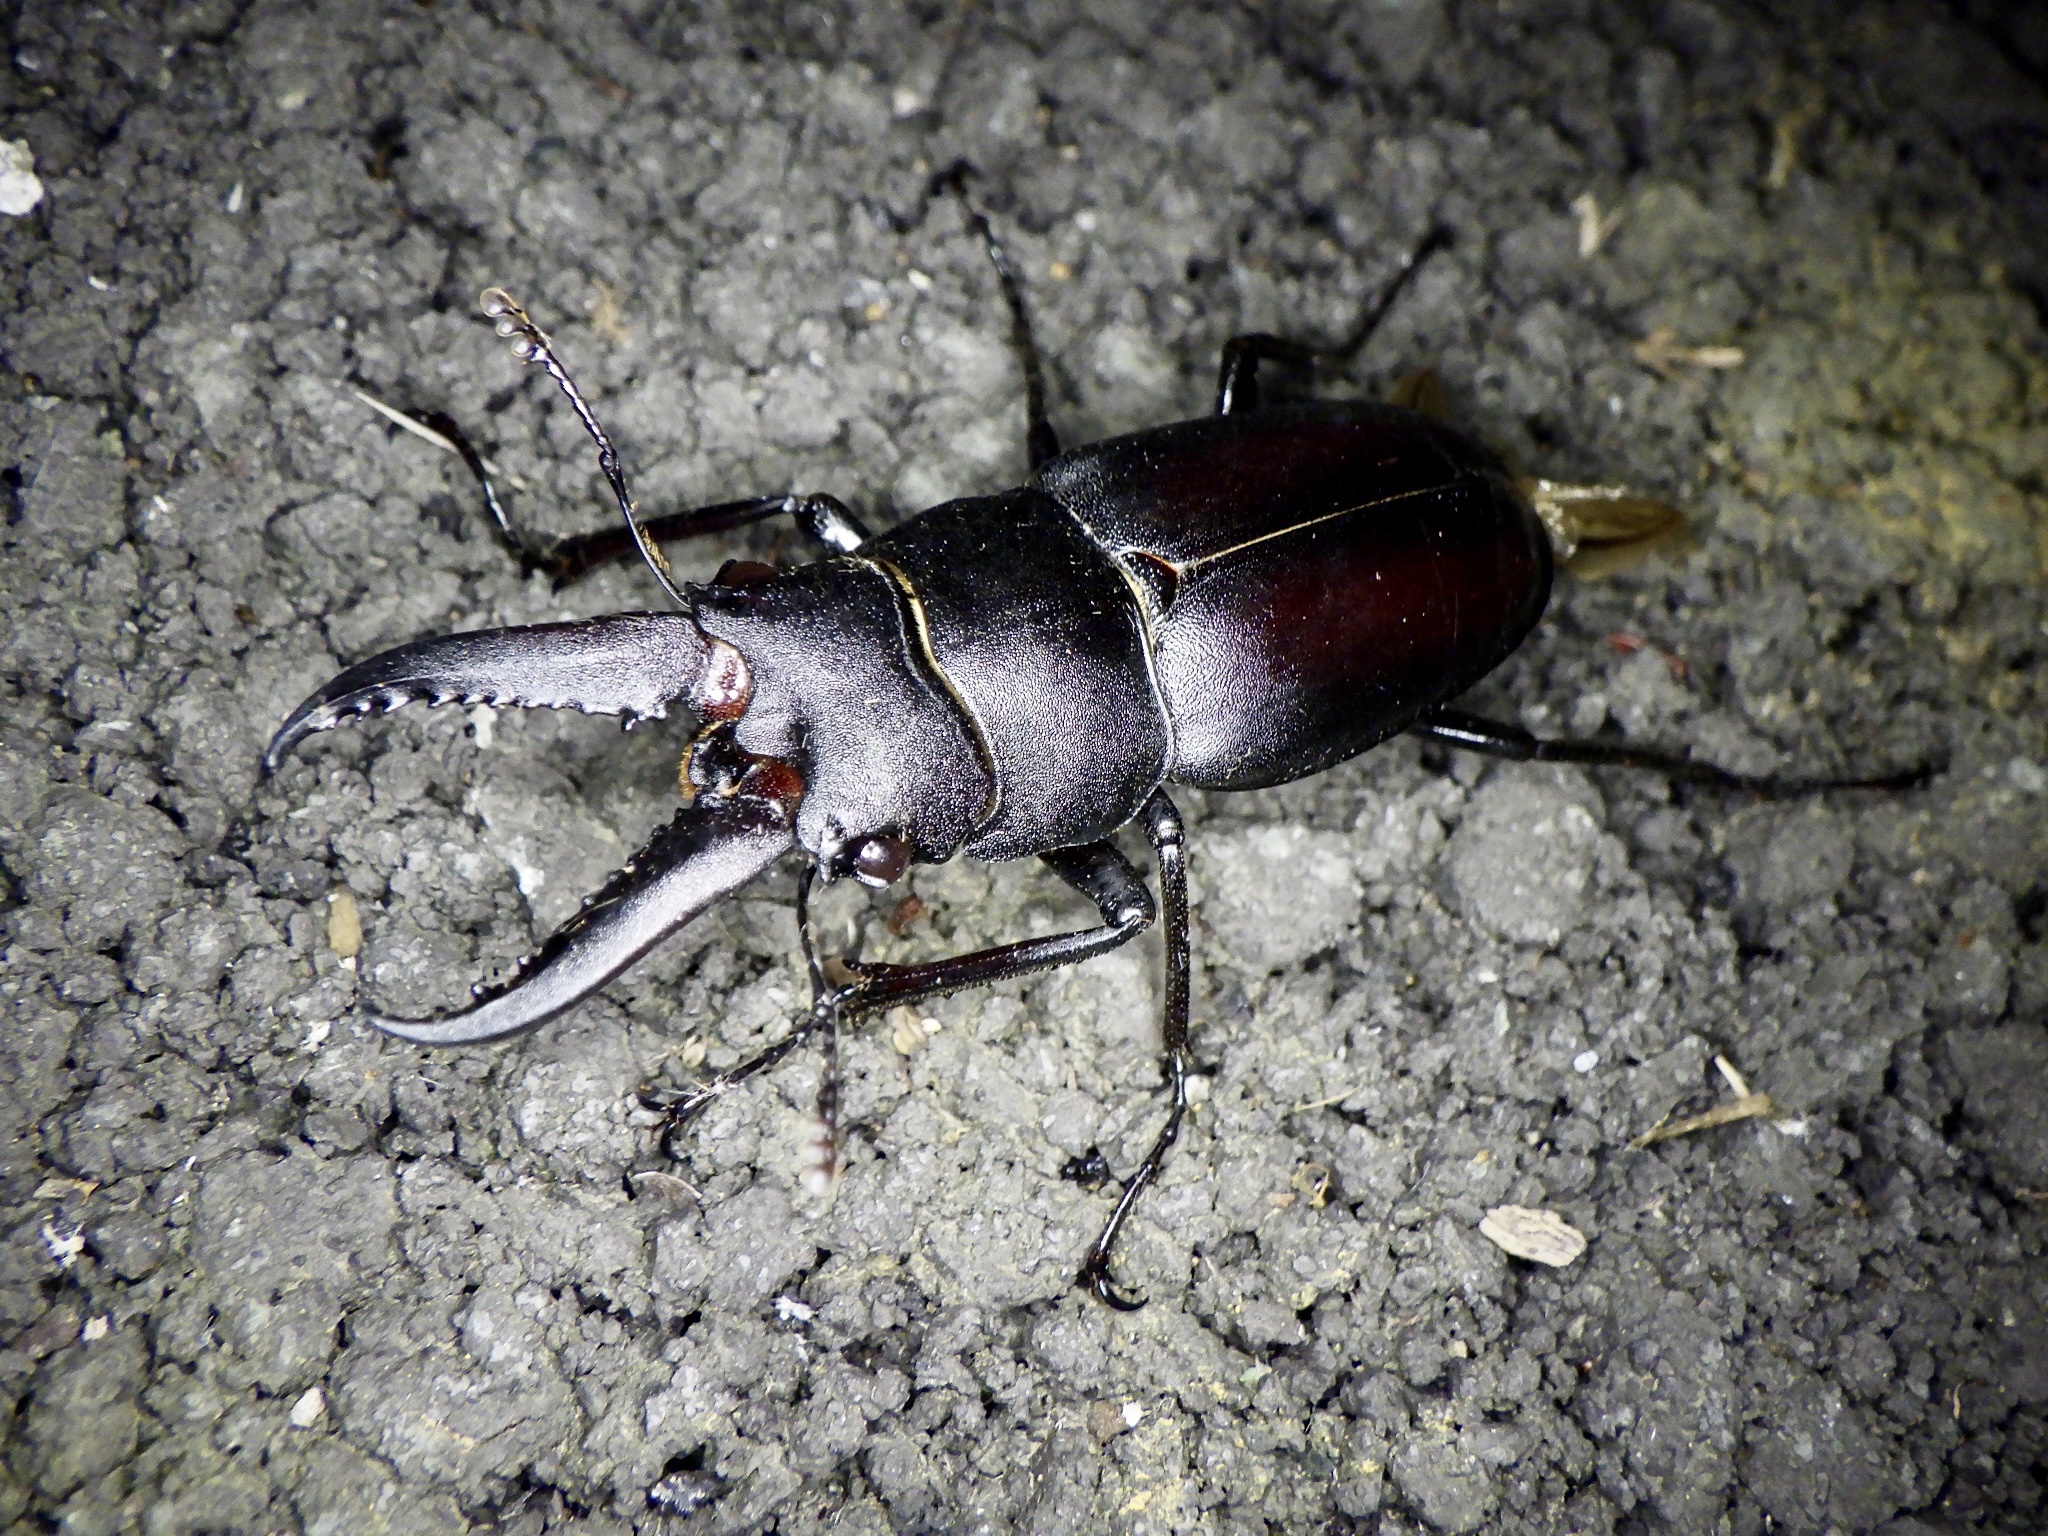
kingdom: Animalia
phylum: Arthropoda
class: Insecta
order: Coleoptera
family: Lucanidae
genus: Prosopocoilus
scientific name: Prosopocoilus inclinatus
